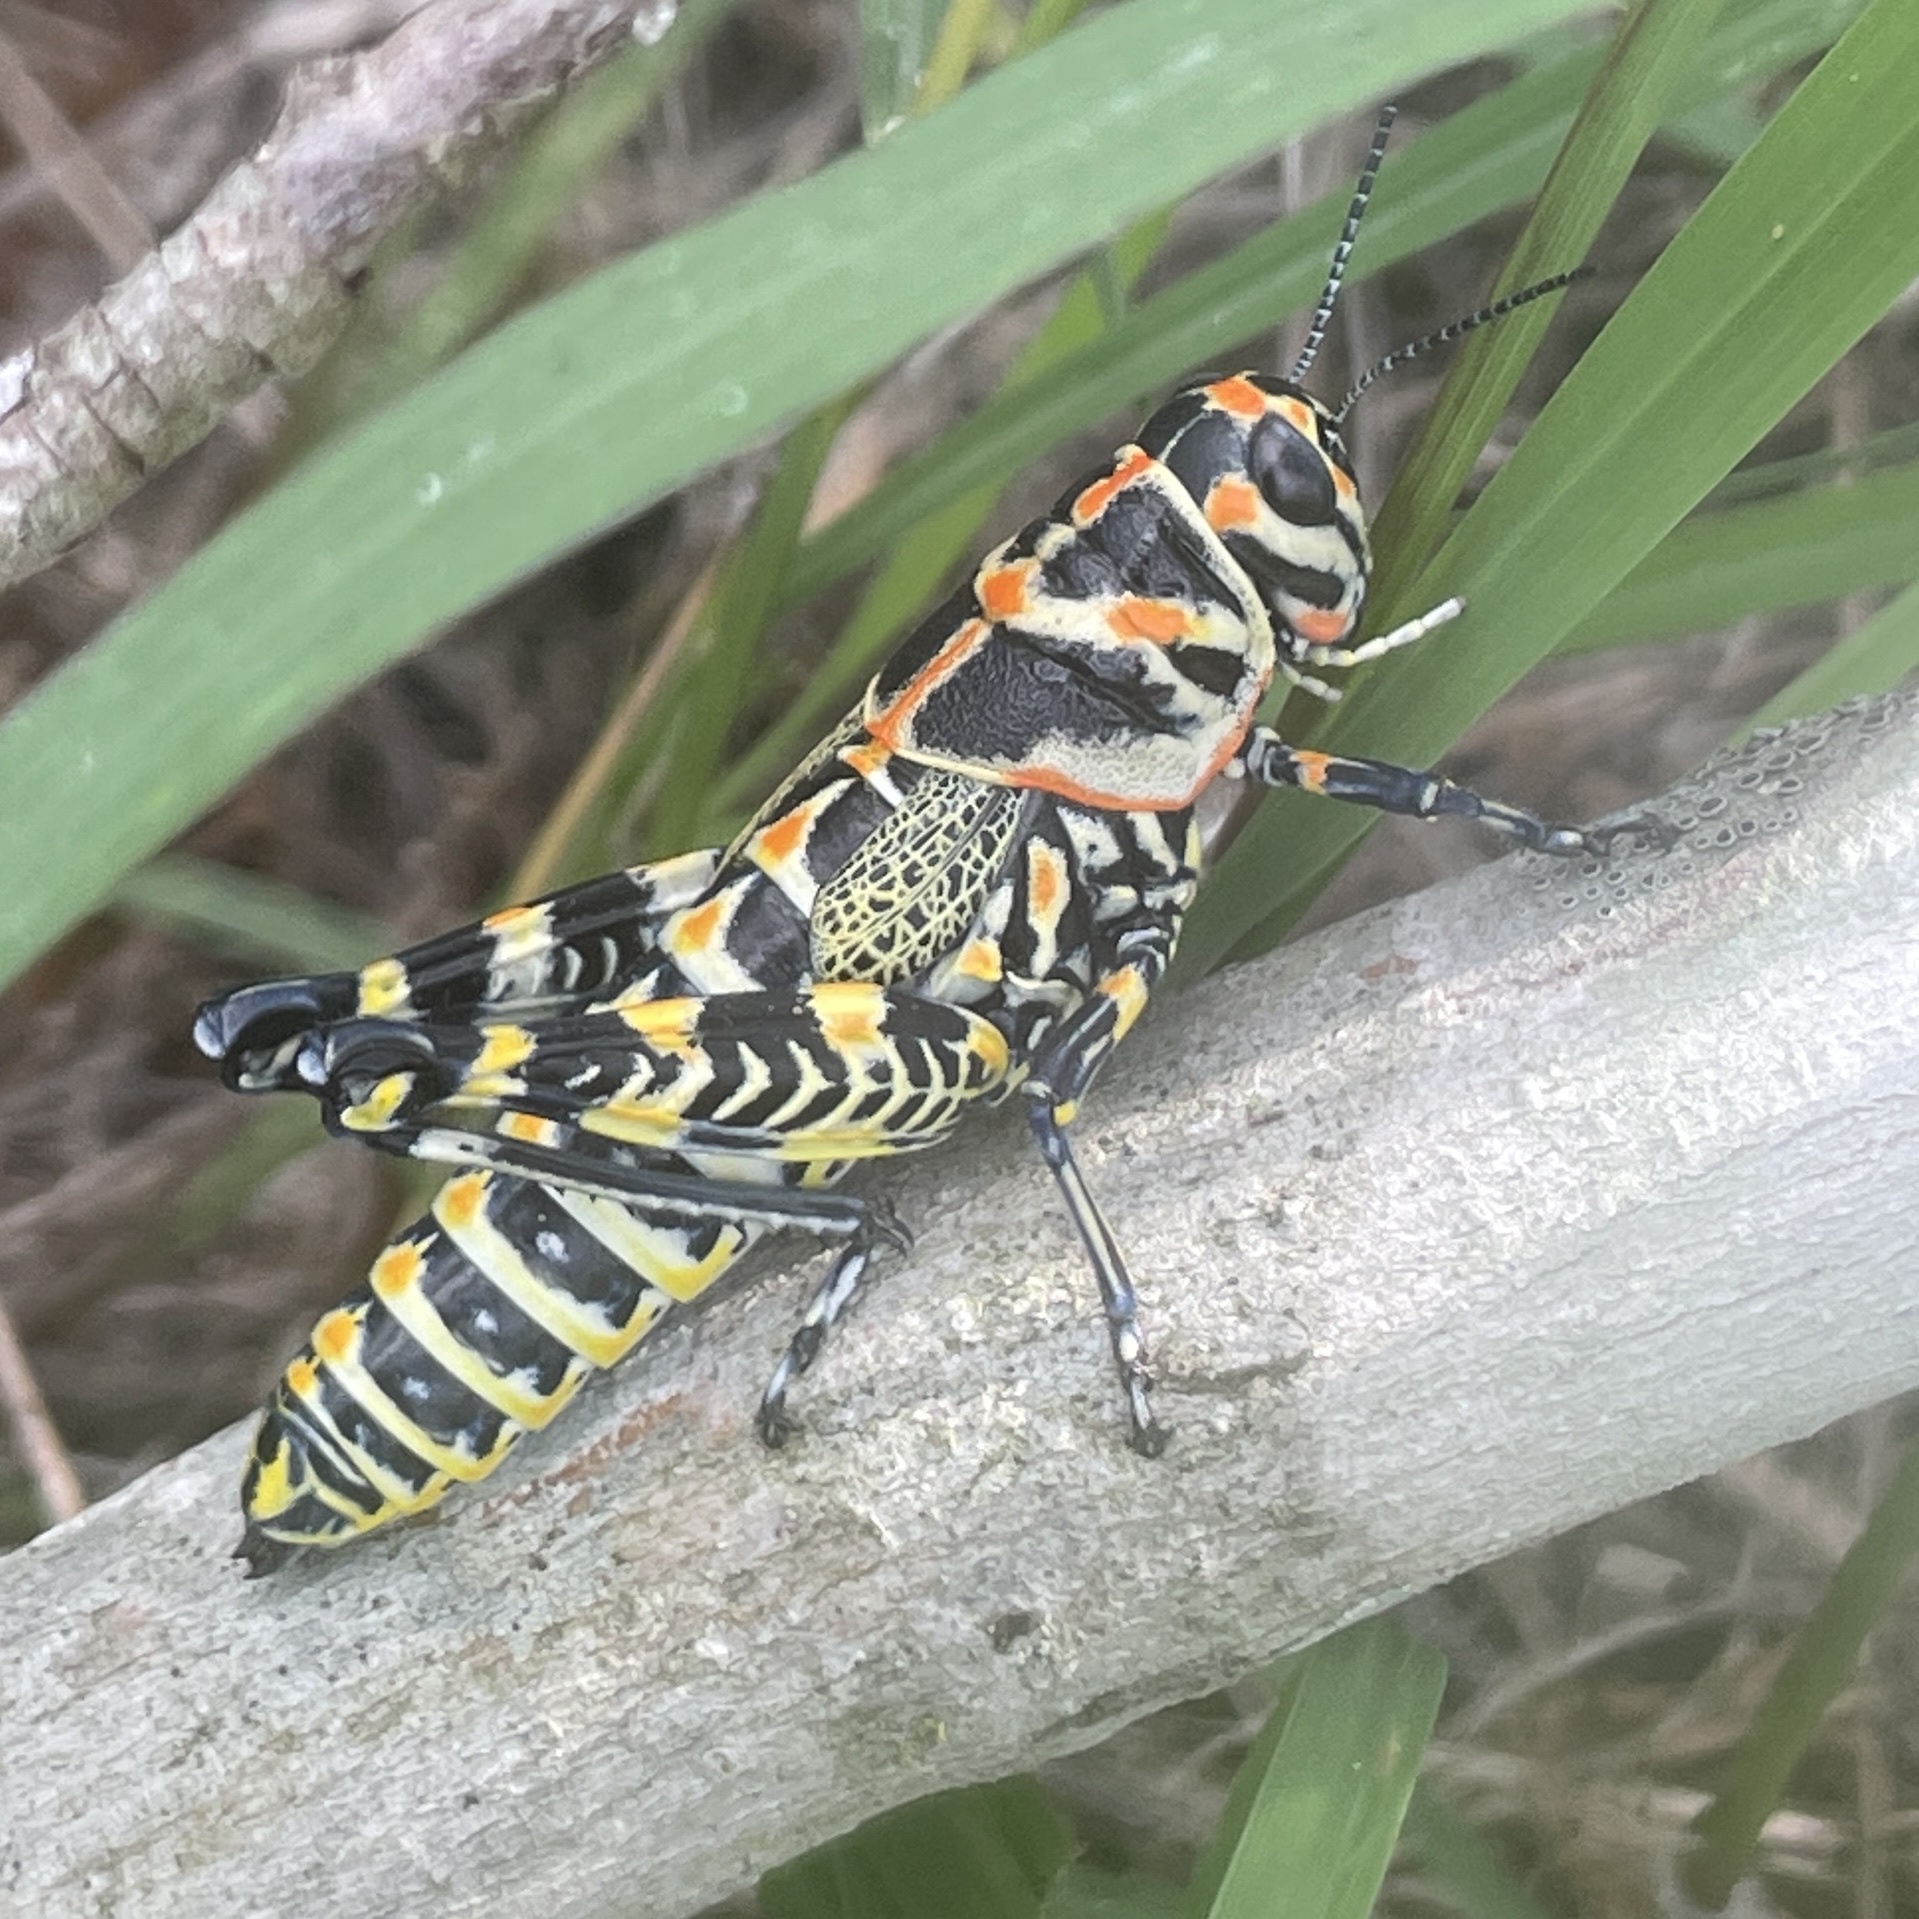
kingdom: Animalia
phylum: Arthropoda
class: Insecta
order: Orthoptera
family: Acrididae
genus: Dactylotum
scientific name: Dactylotum bicolor
